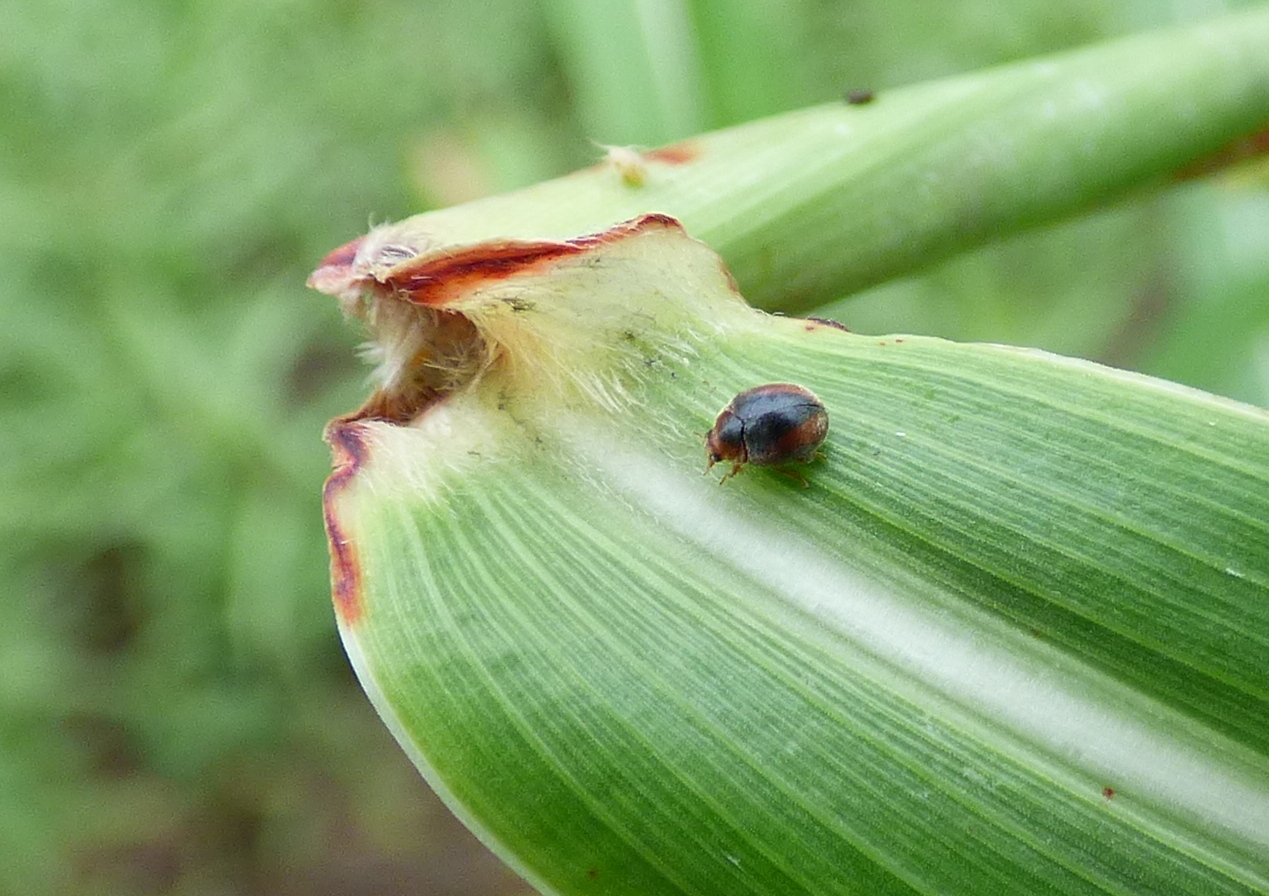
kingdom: Animalia
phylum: Arthropoda
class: Insecta
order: Coleoptera
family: Coccinellidae
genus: Scymnus
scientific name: Scymnus loewii
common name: Dusky lady beetle
